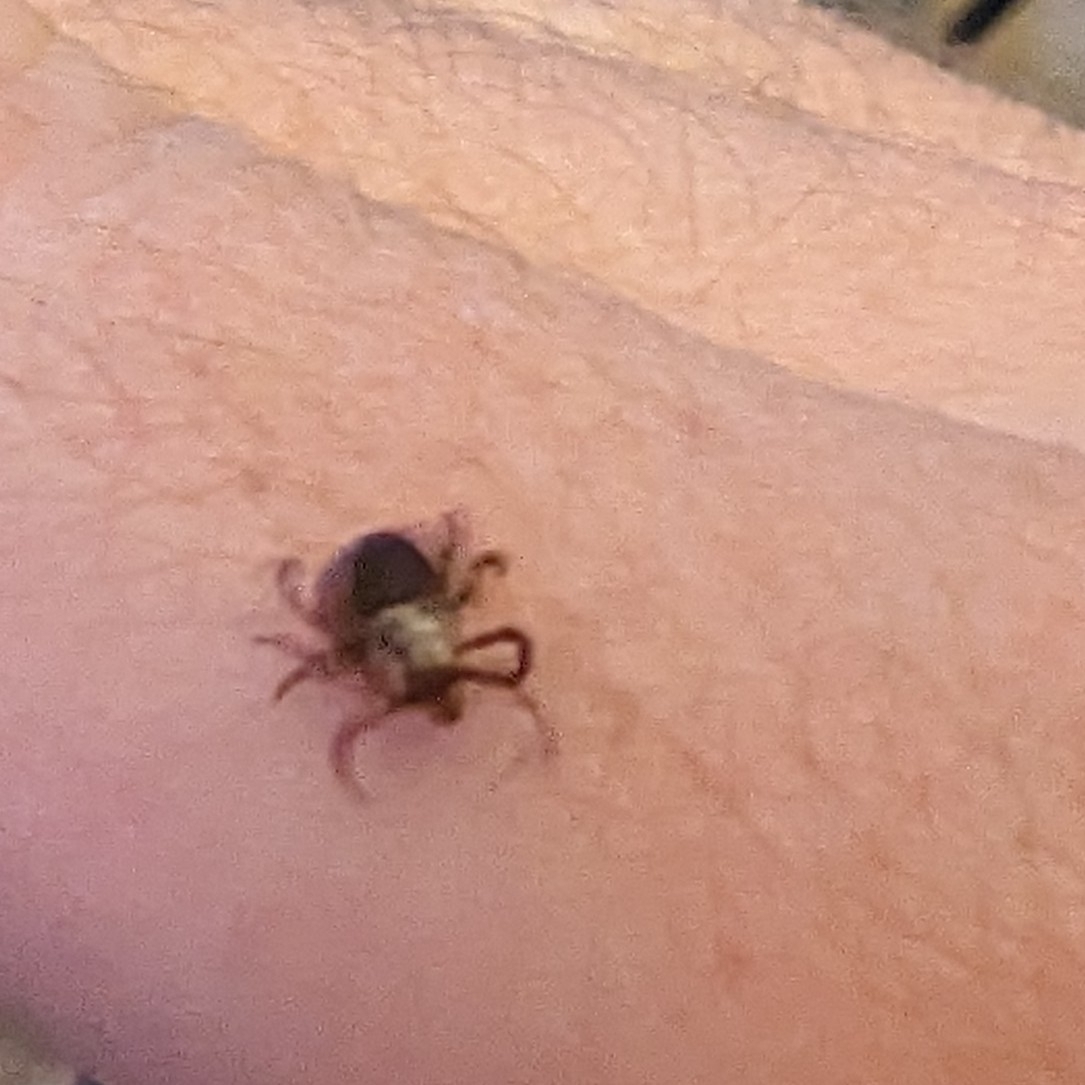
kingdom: Animalia
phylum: Arthropoda
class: Arachnida
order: Ixodida
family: Ixodidae
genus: Dermacentor
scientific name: Dermacentor variabilis
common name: American dog tick
